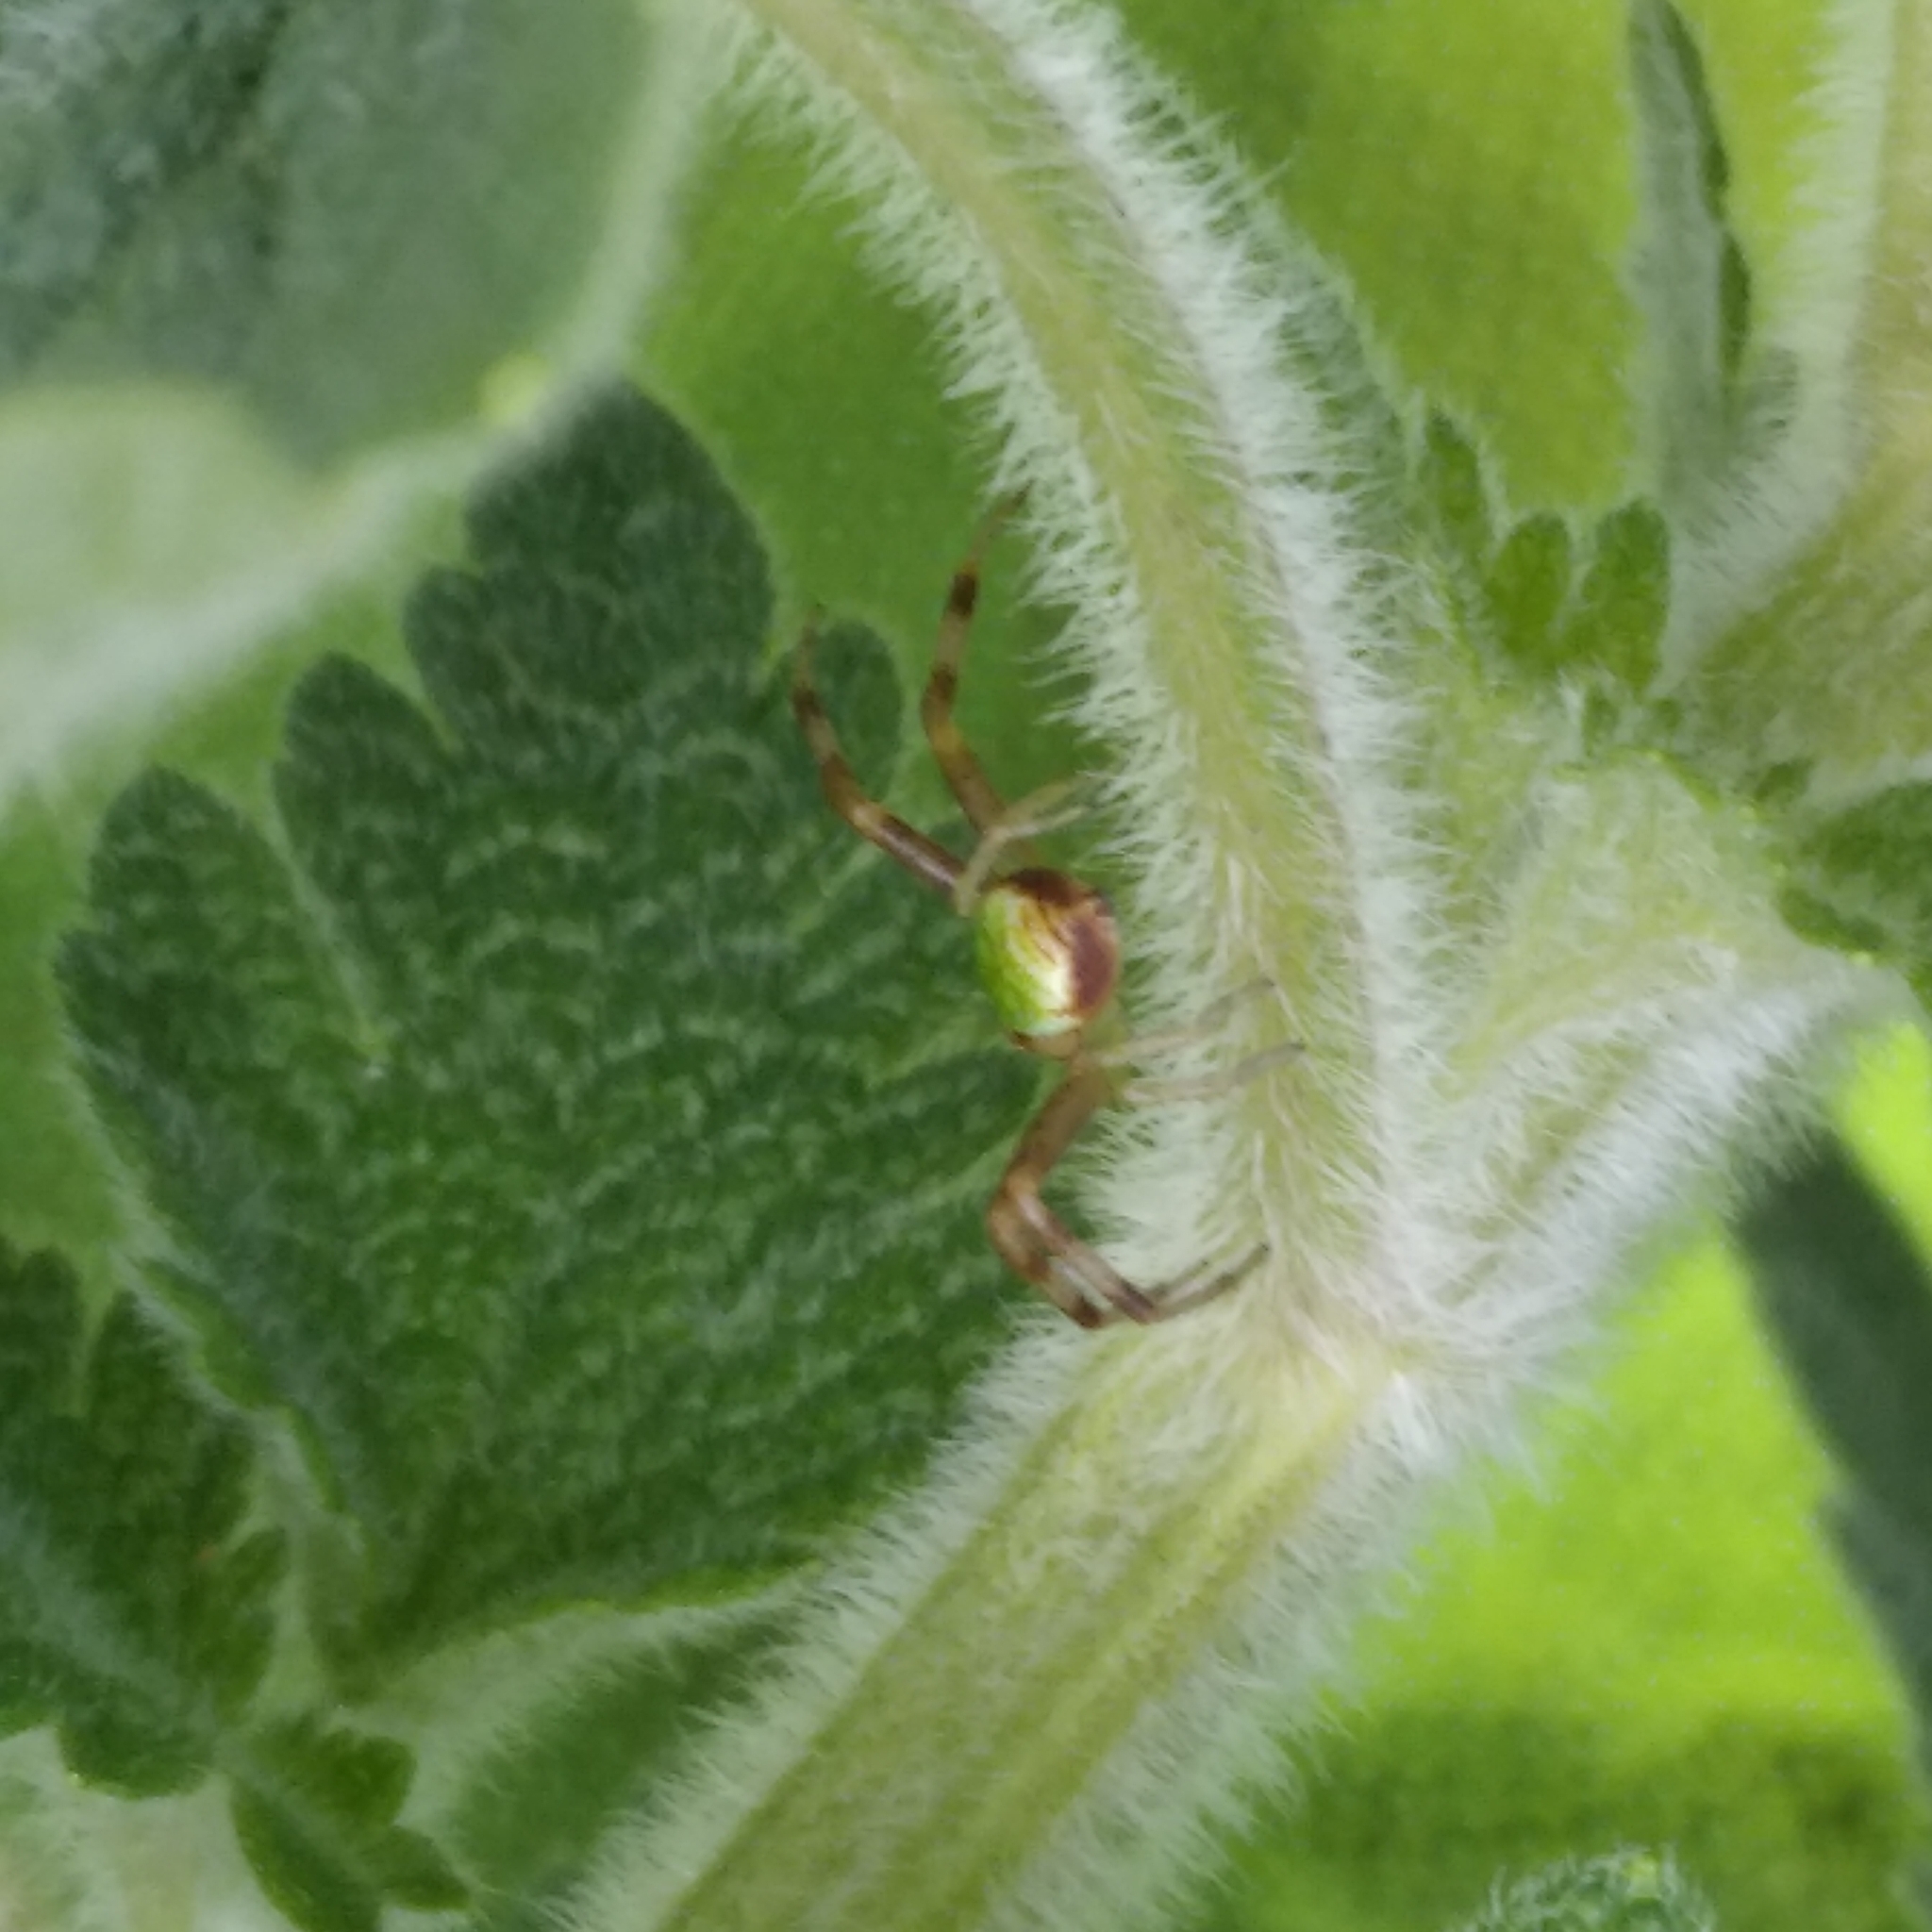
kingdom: Animalia
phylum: Arthropoda
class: Arachnida
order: Araneae
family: Thomisidae
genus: Ebrechtella
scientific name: Ebrechtella tricuspidata
